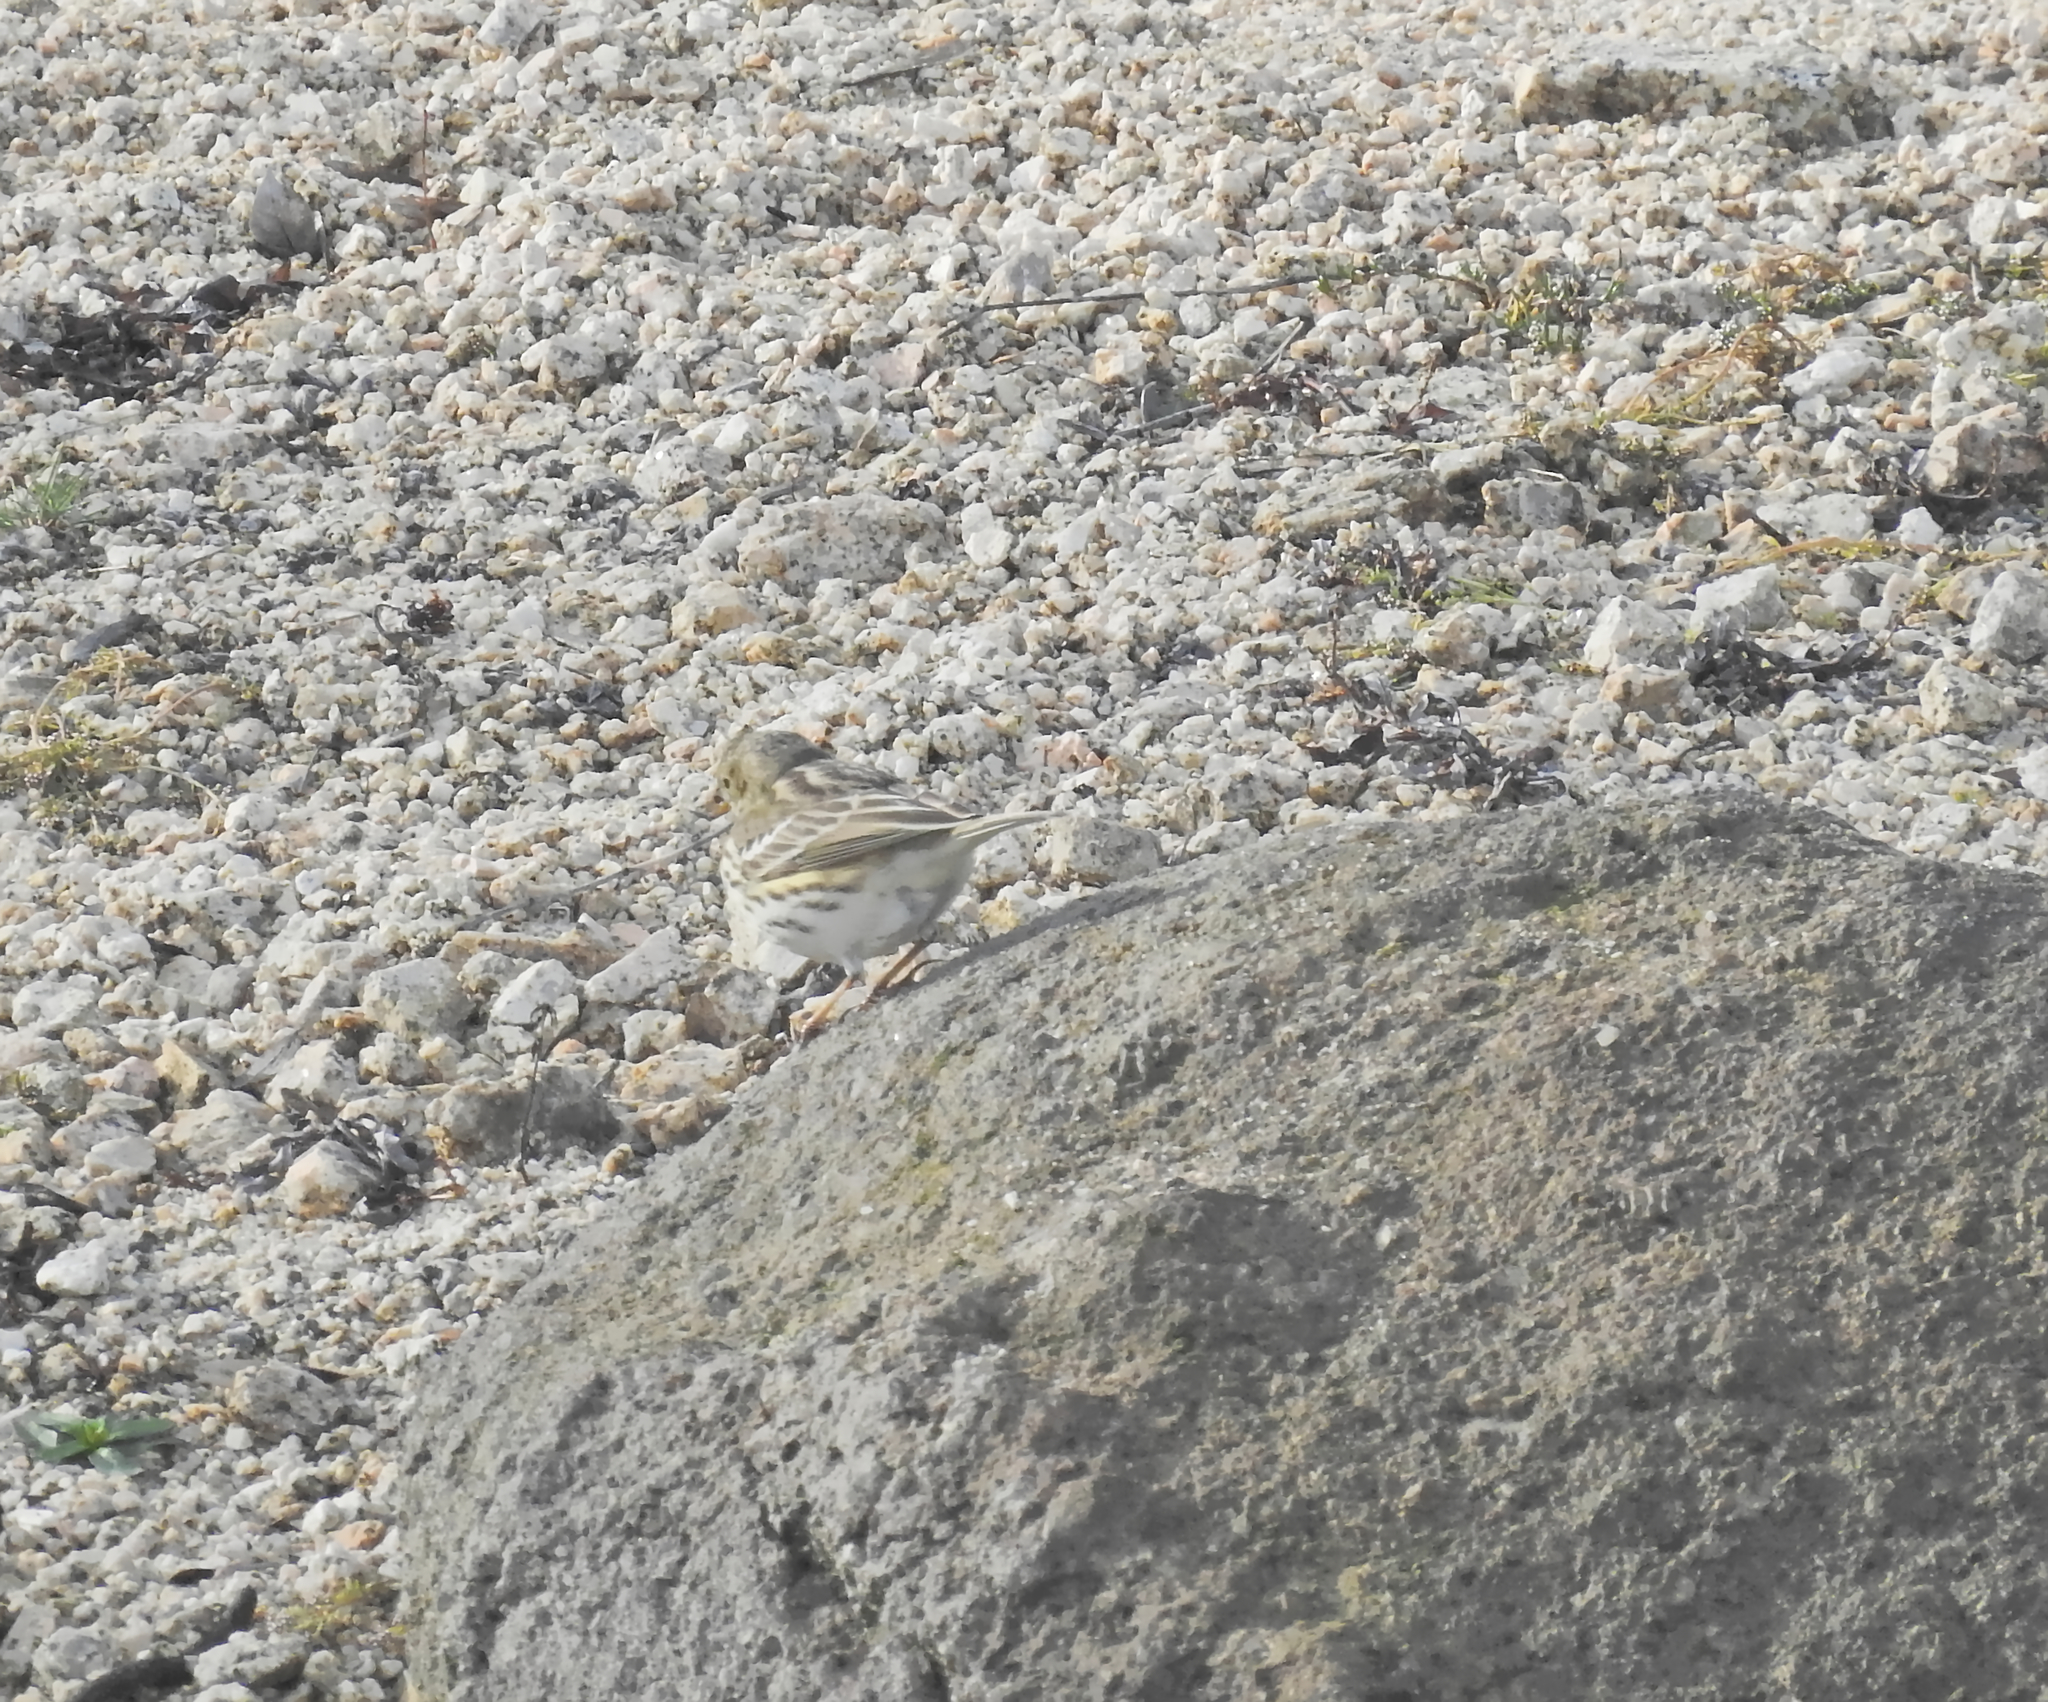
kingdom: Animalia
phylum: Chordata
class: Aves
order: Passeriformes
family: Motacillidae
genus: Anthus
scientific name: Anthus pratensis
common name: Meadow pipit
